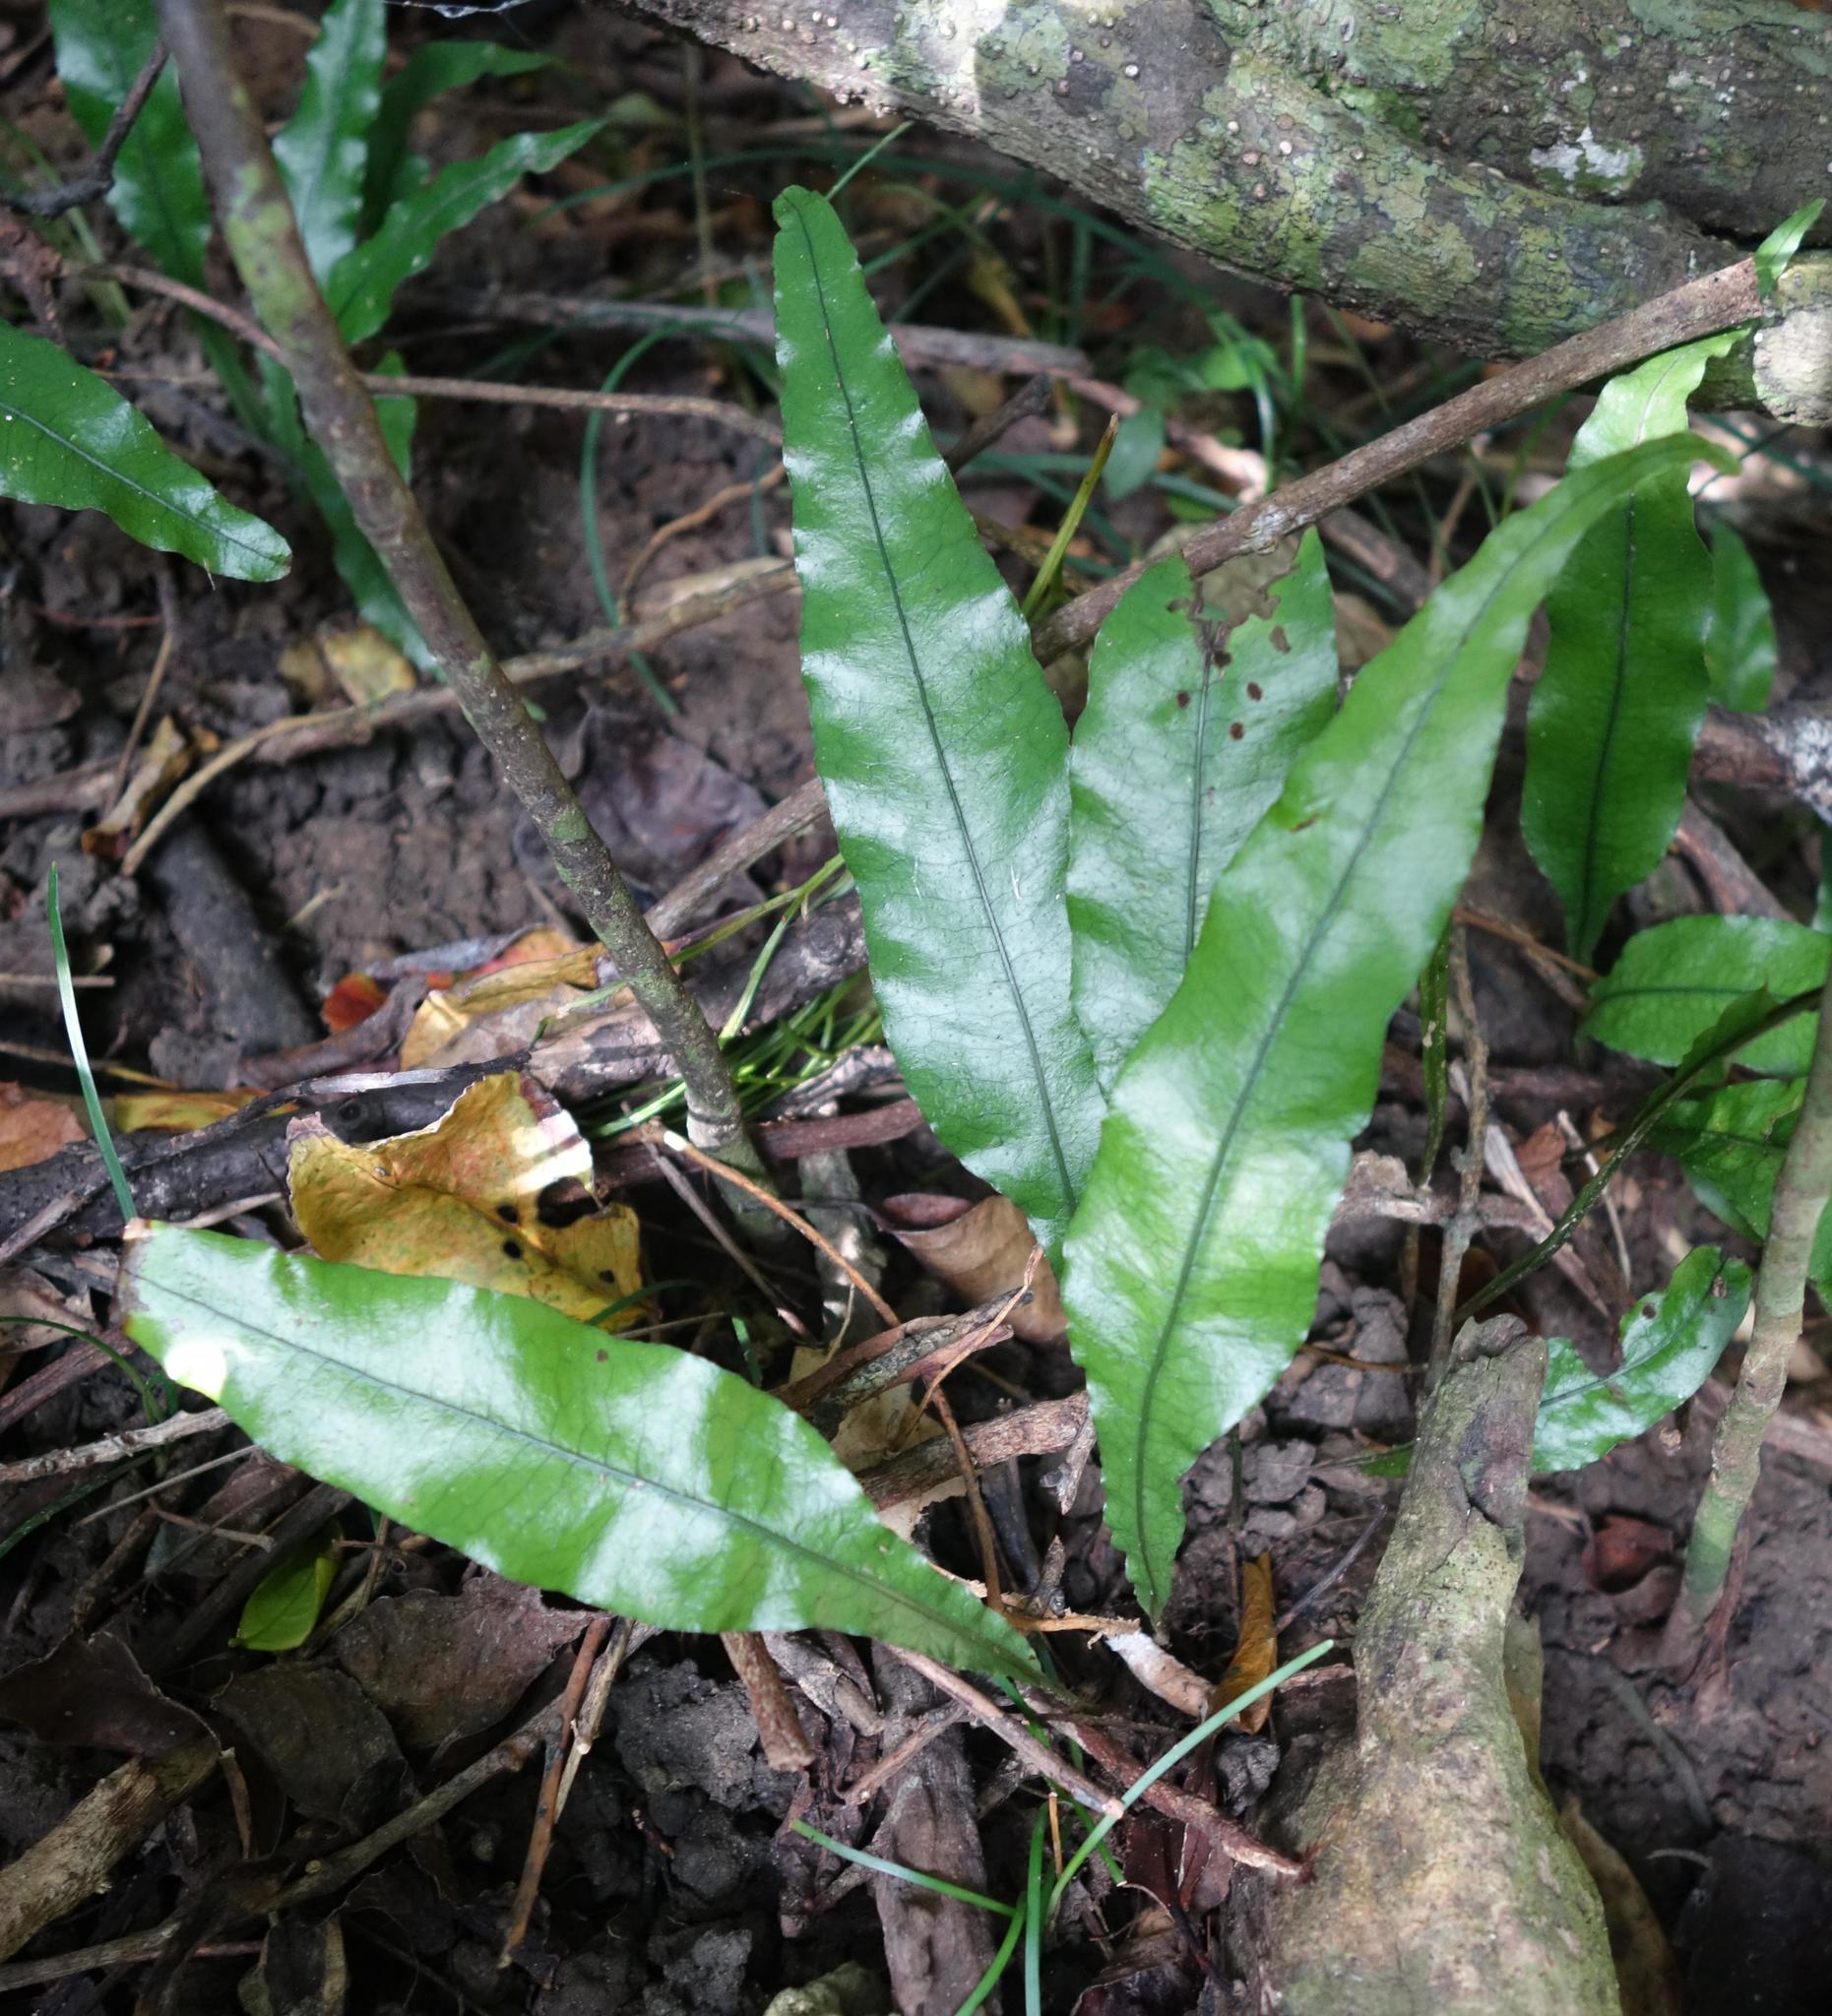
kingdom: Plantae
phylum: Tracheophyta
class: Polypodiopsida
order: Polypodiales
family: Polypodiaceae
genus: Leptochilus
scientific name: Leptochilus wrightii
